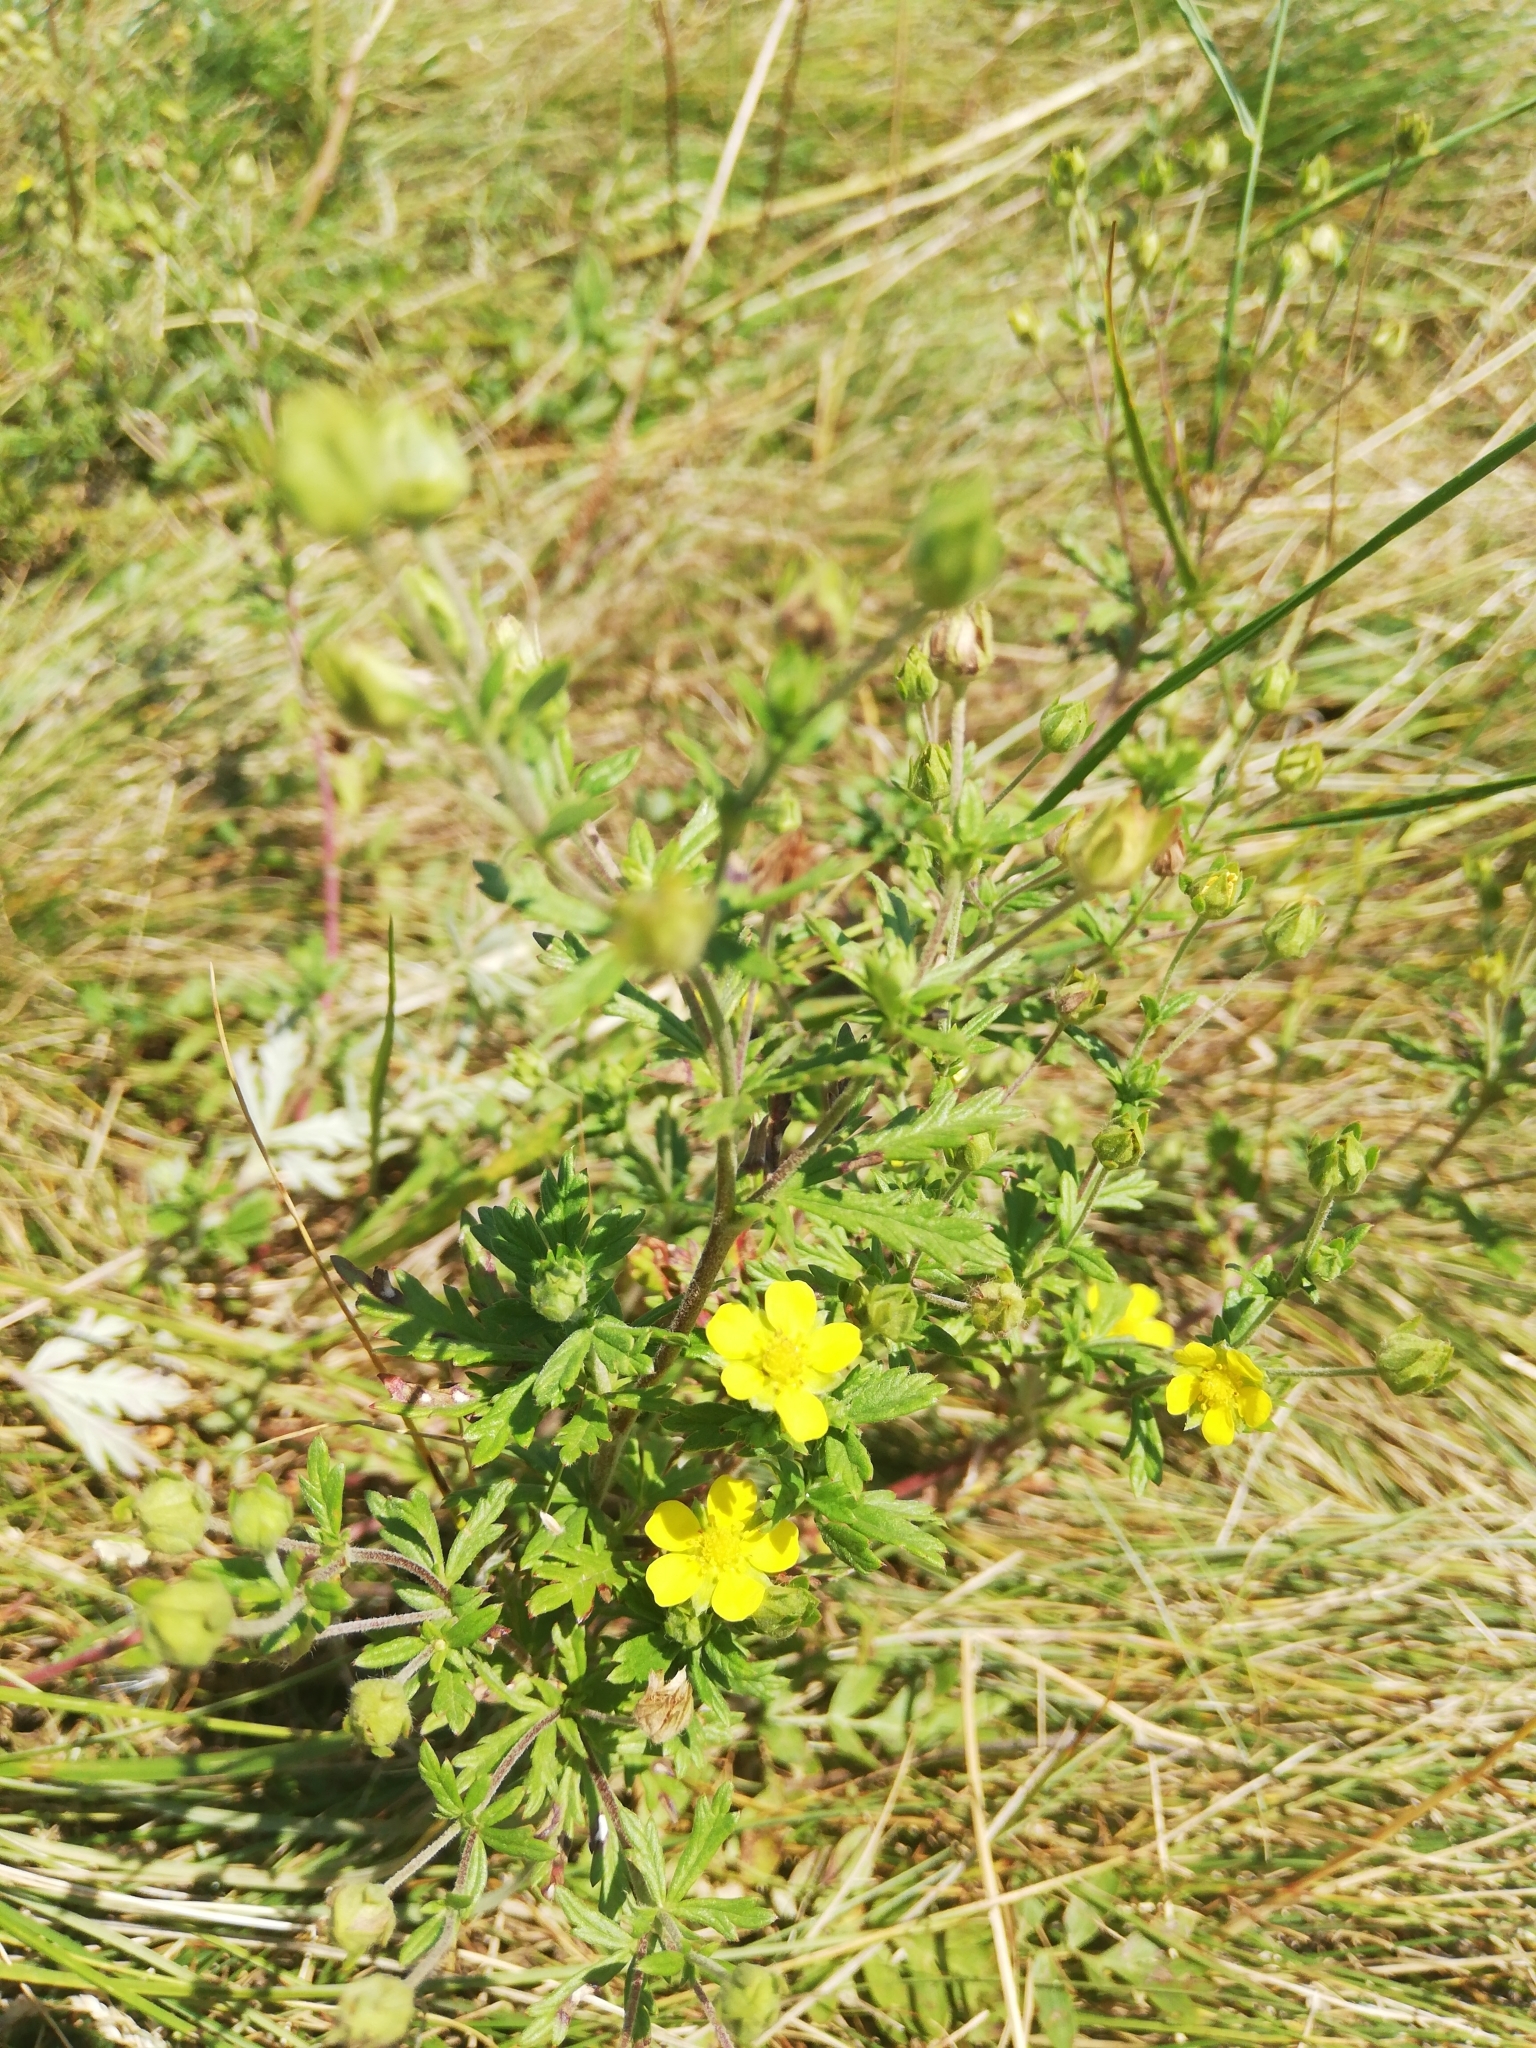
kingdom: Plantae
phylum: Tracheophyta
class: Magnoliopsida
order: Rosales
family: Rosaceae
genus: Potentilla
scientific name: Potentilla argentea
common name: Hoary cinquefoil
